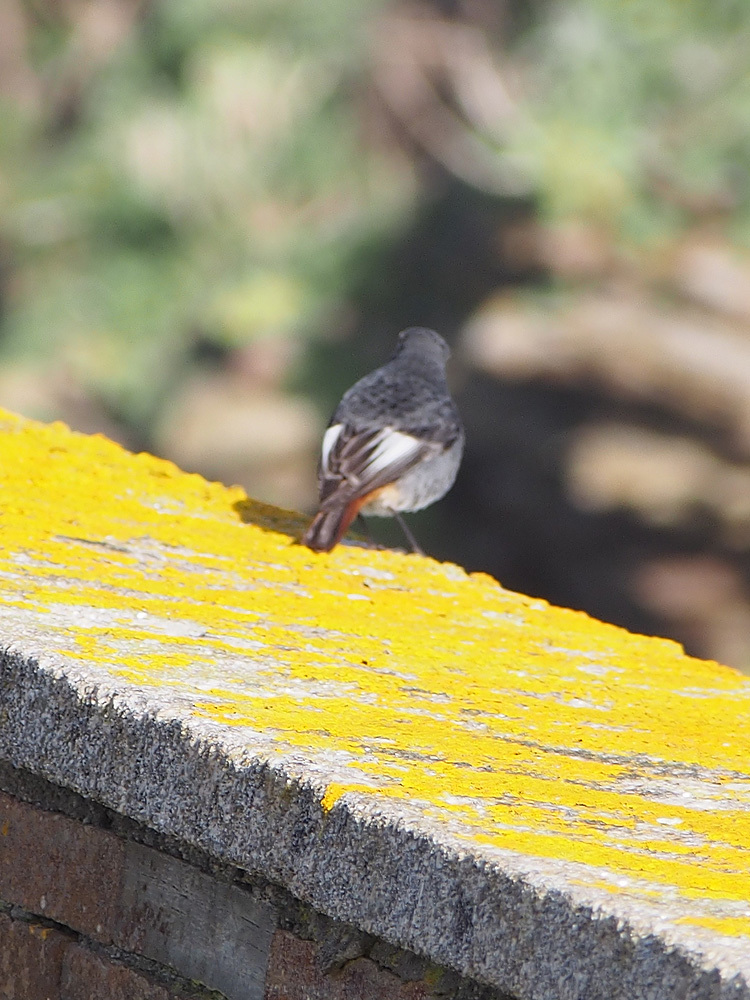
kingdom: Animalia
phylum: Chordata
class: Aves
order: Passeriformes
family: Muscicapidae
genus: Phoenicurus
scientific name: Phoenicurus ochruros
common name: Black redstart
